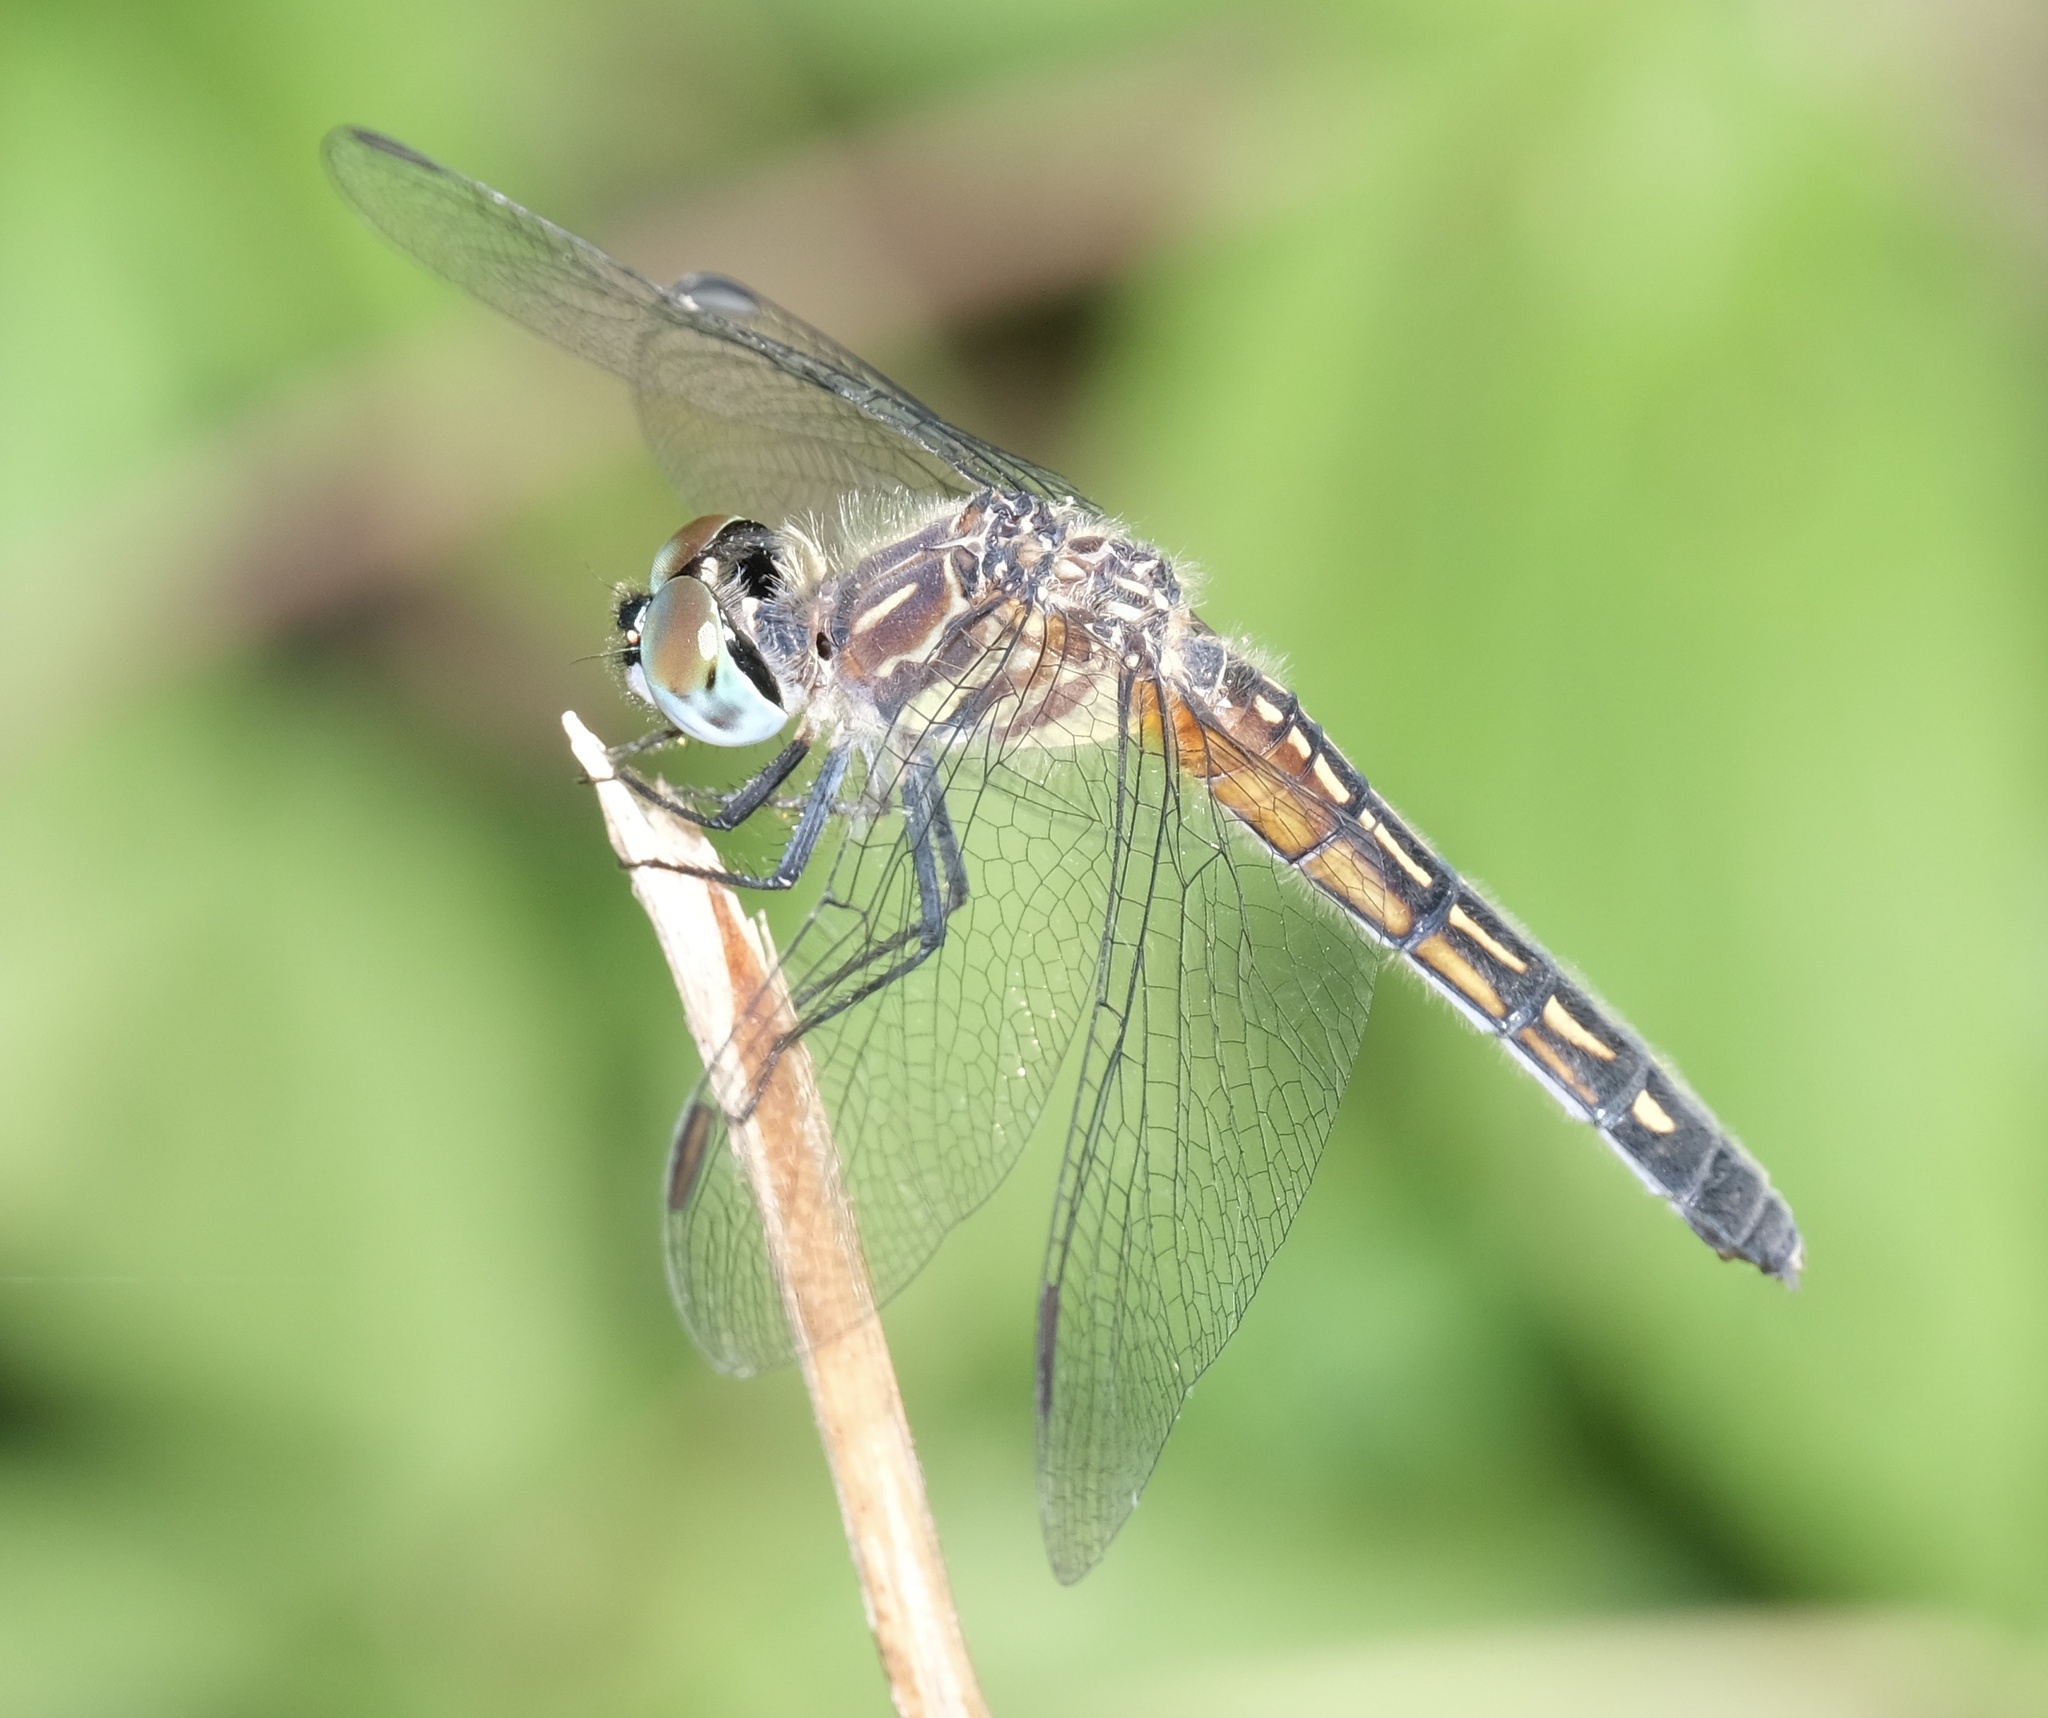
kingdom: Animalia
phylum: Arthropoda
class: Insecta
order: Odonata
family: Libellulidae
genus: Pachydiplax
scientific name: Pachydiplax longipennis
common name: Blue dasher
